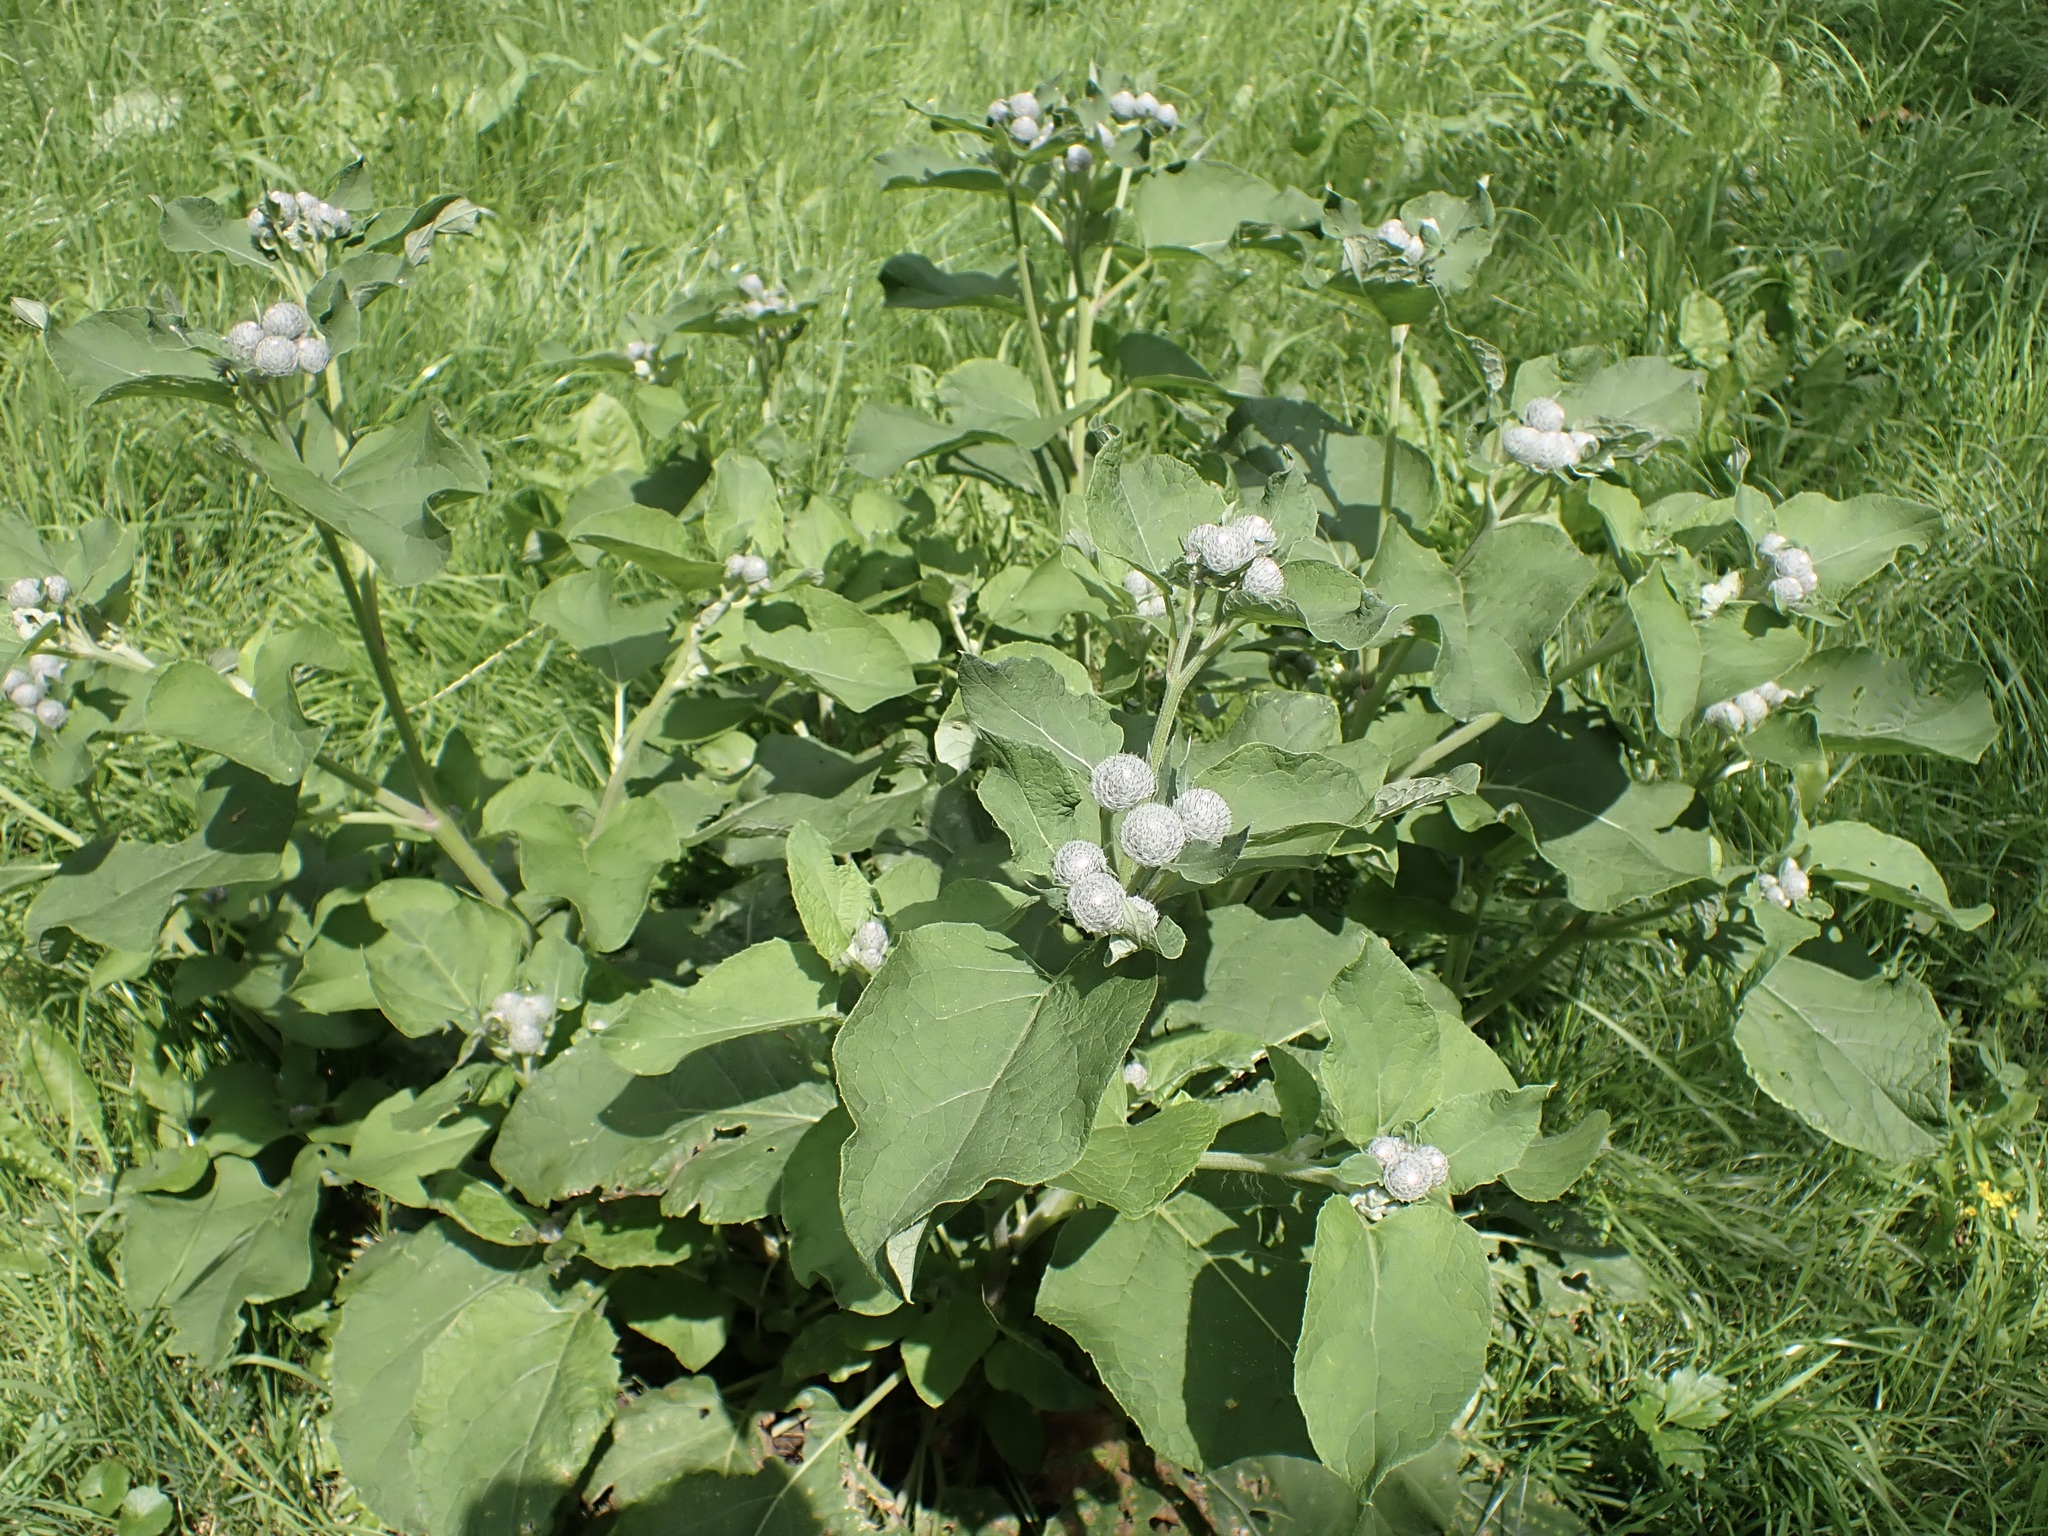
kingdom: Plantae
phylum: Tracheophyta
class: Magnoliopsida
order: Asterales
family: Asteraceae
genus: Arctium
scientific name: Arctium tomentosum
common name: Woolly burdock
